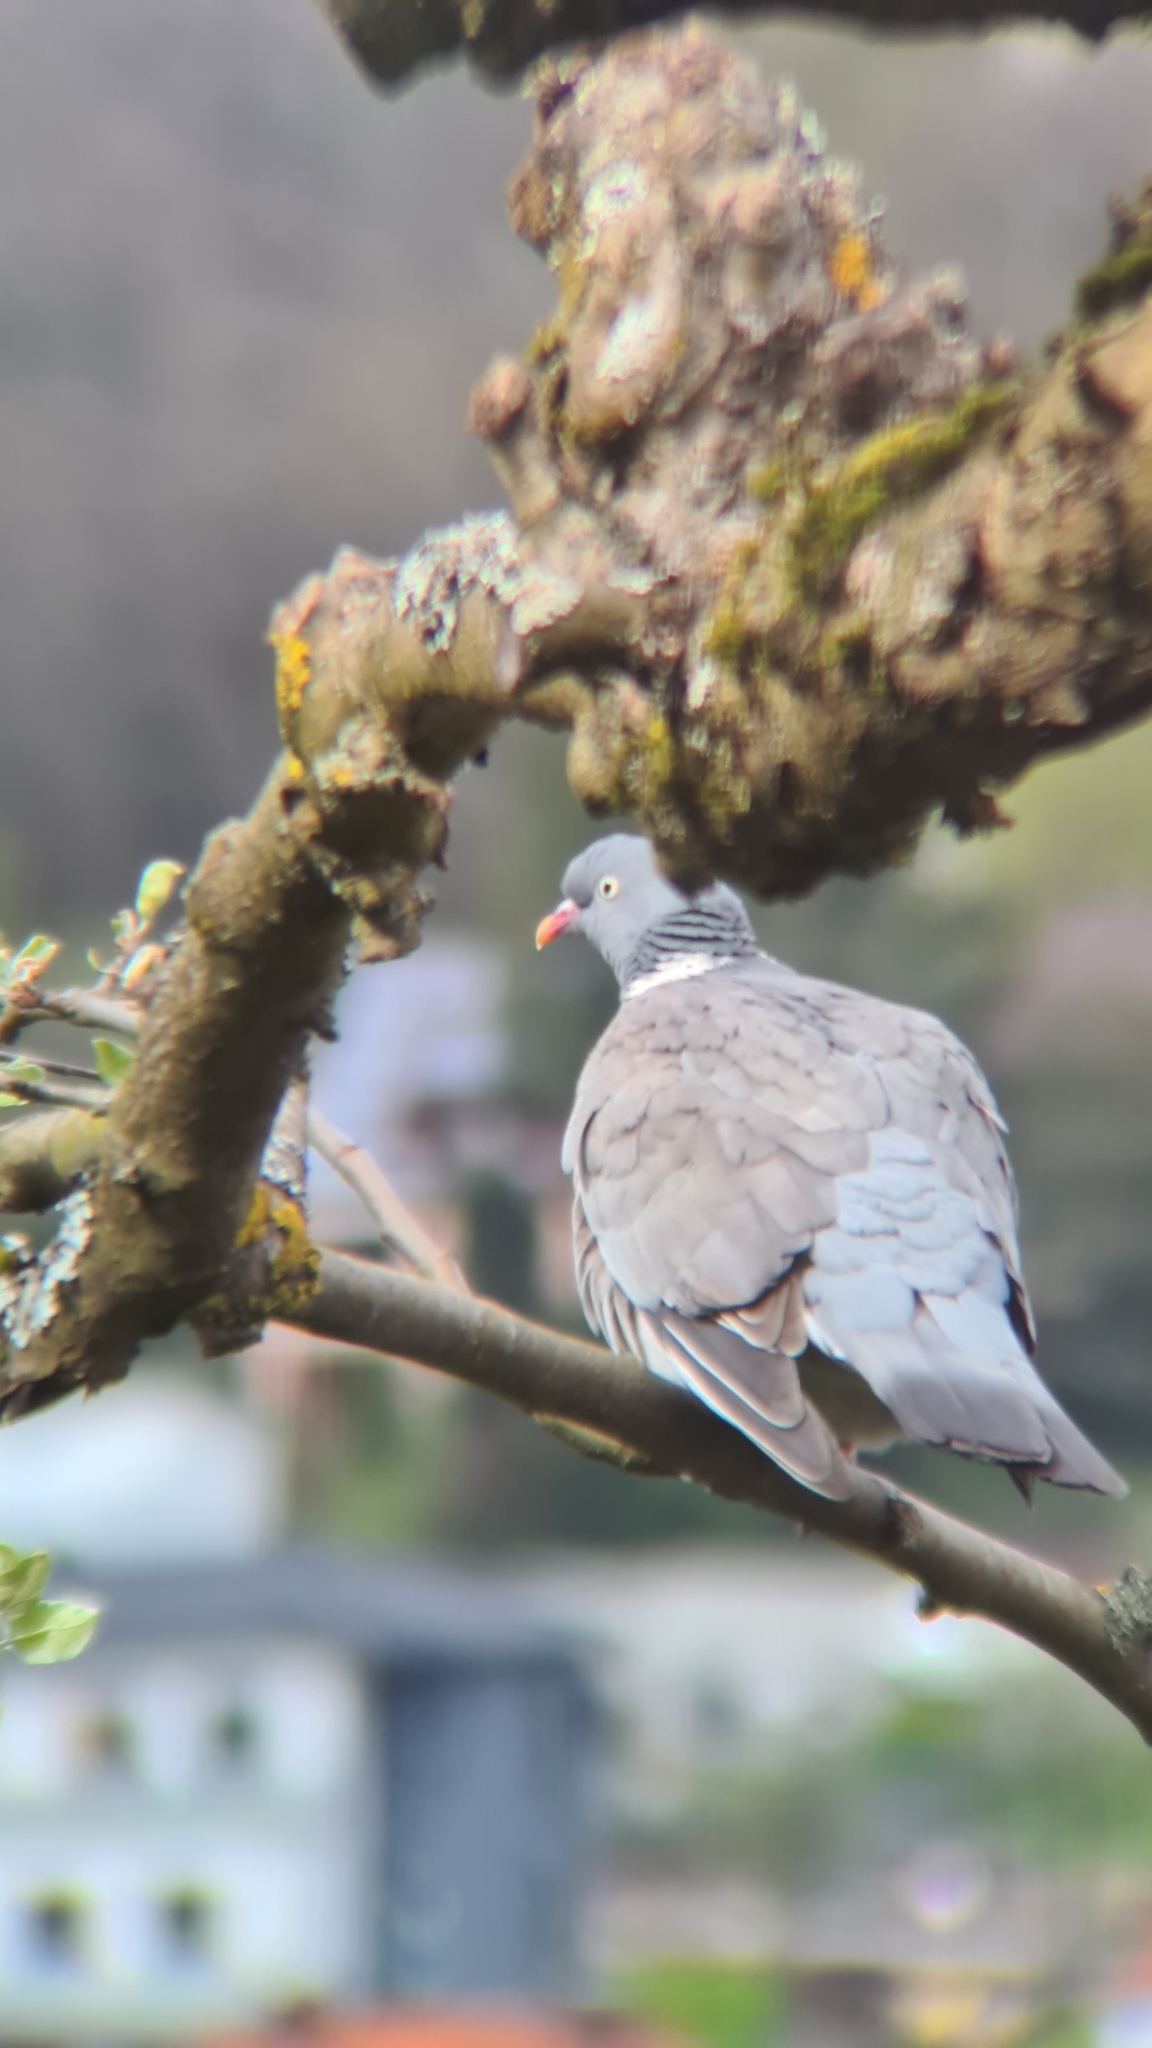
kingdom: Animalia
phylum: Chordata
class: Aves
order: Columbiformes
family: Columbidae
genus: Columba
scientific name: Columba palumbus
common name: Common wood pigeon
